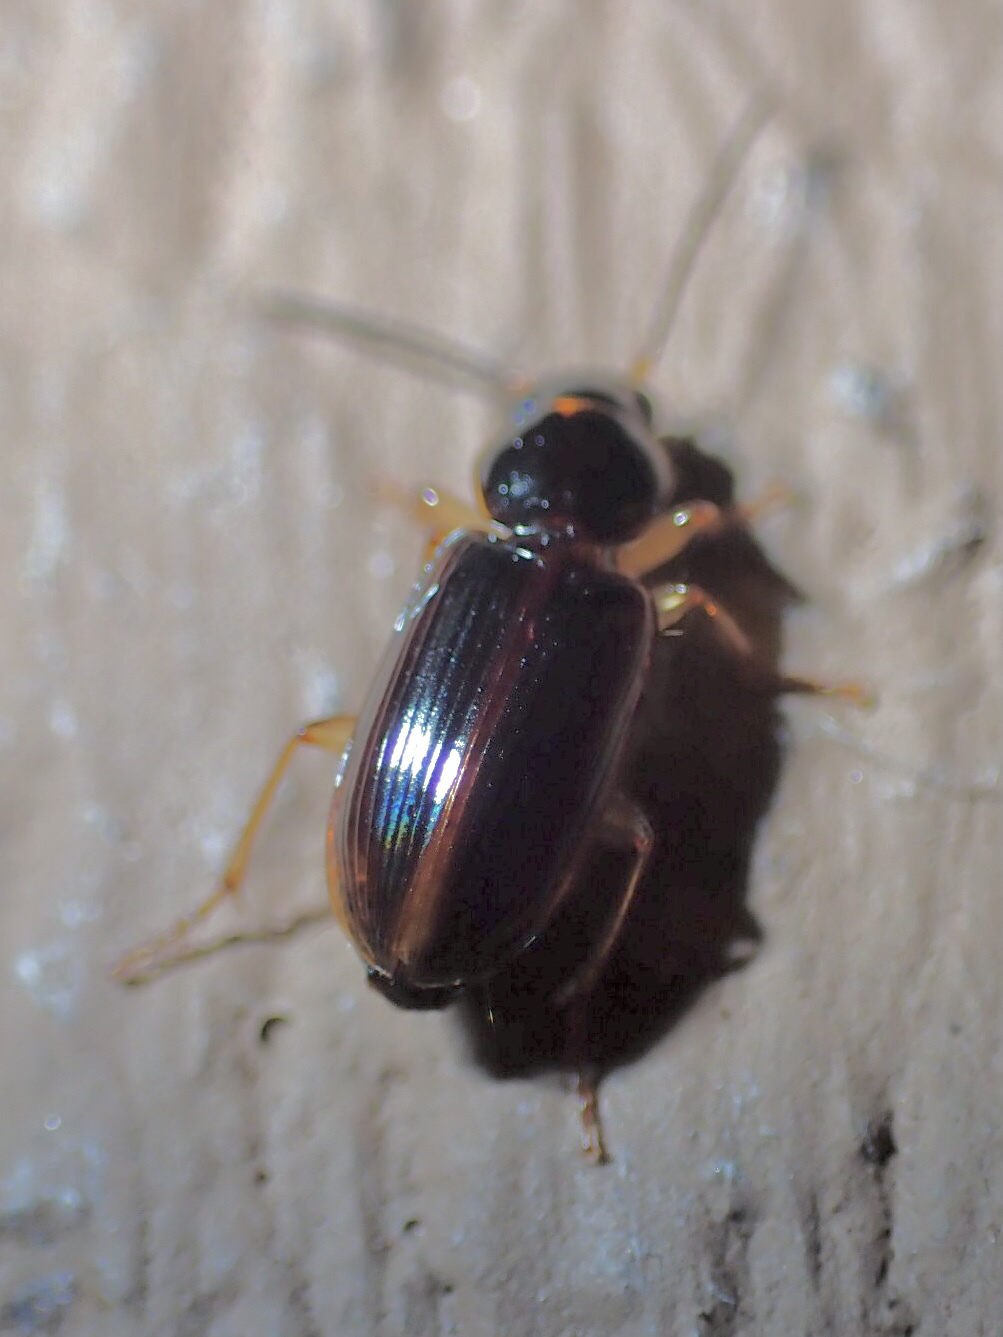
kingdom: Animalia
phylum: Arthropoda
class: Insecta
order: Coleoptera
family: Carabidae
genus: Stenolophus
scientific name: Stenolophus ochropezus
